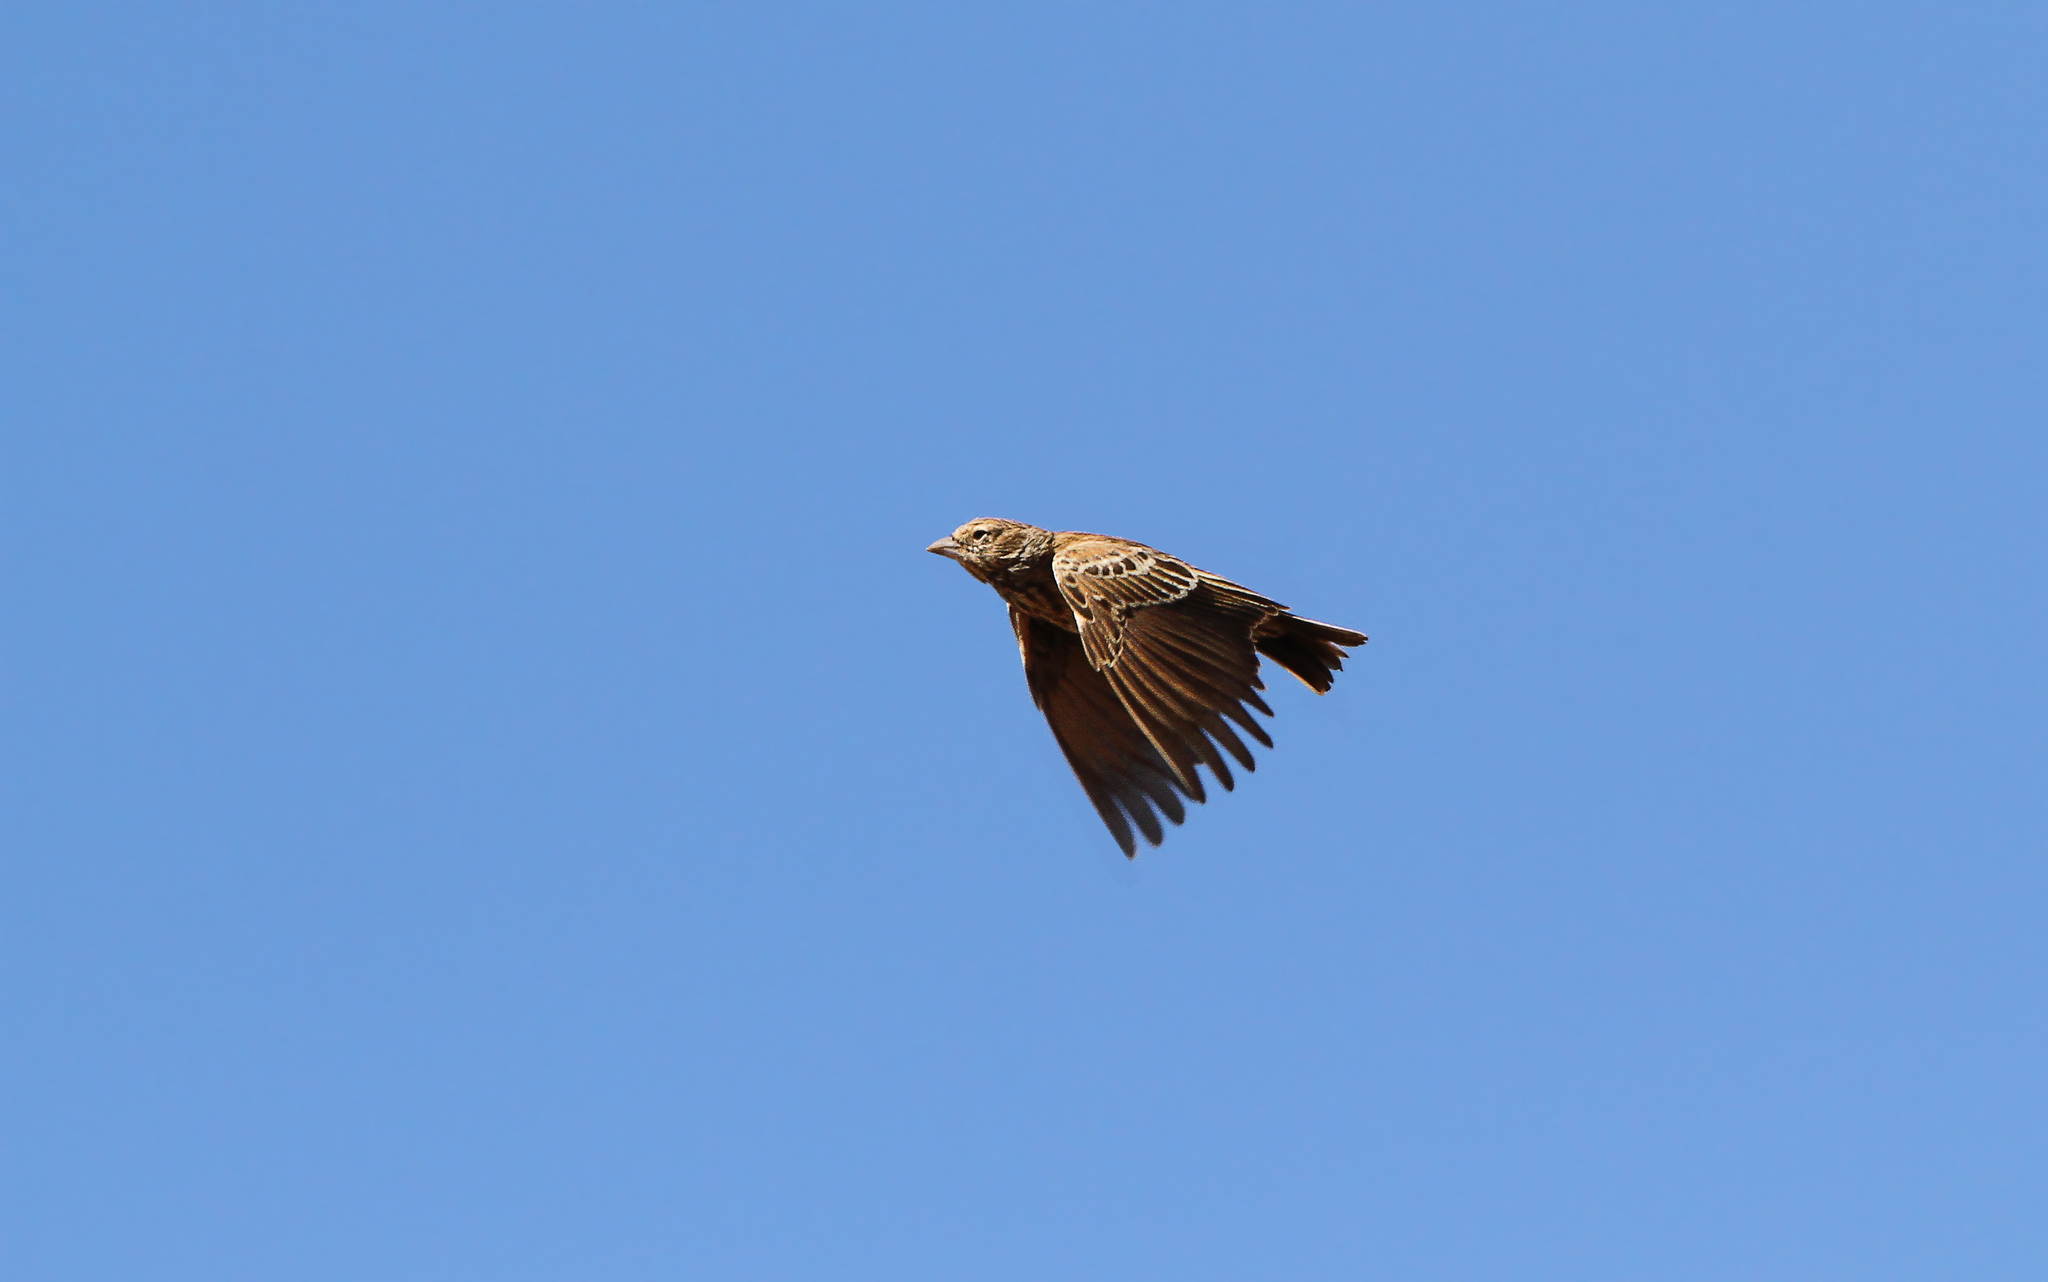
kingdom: Animalia
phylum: Chordata
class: Aves
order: Passeriformes
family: Alaudidae
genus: Eremopterix
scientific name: Eremopterix australis
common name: Black-eared sparrow-lark
